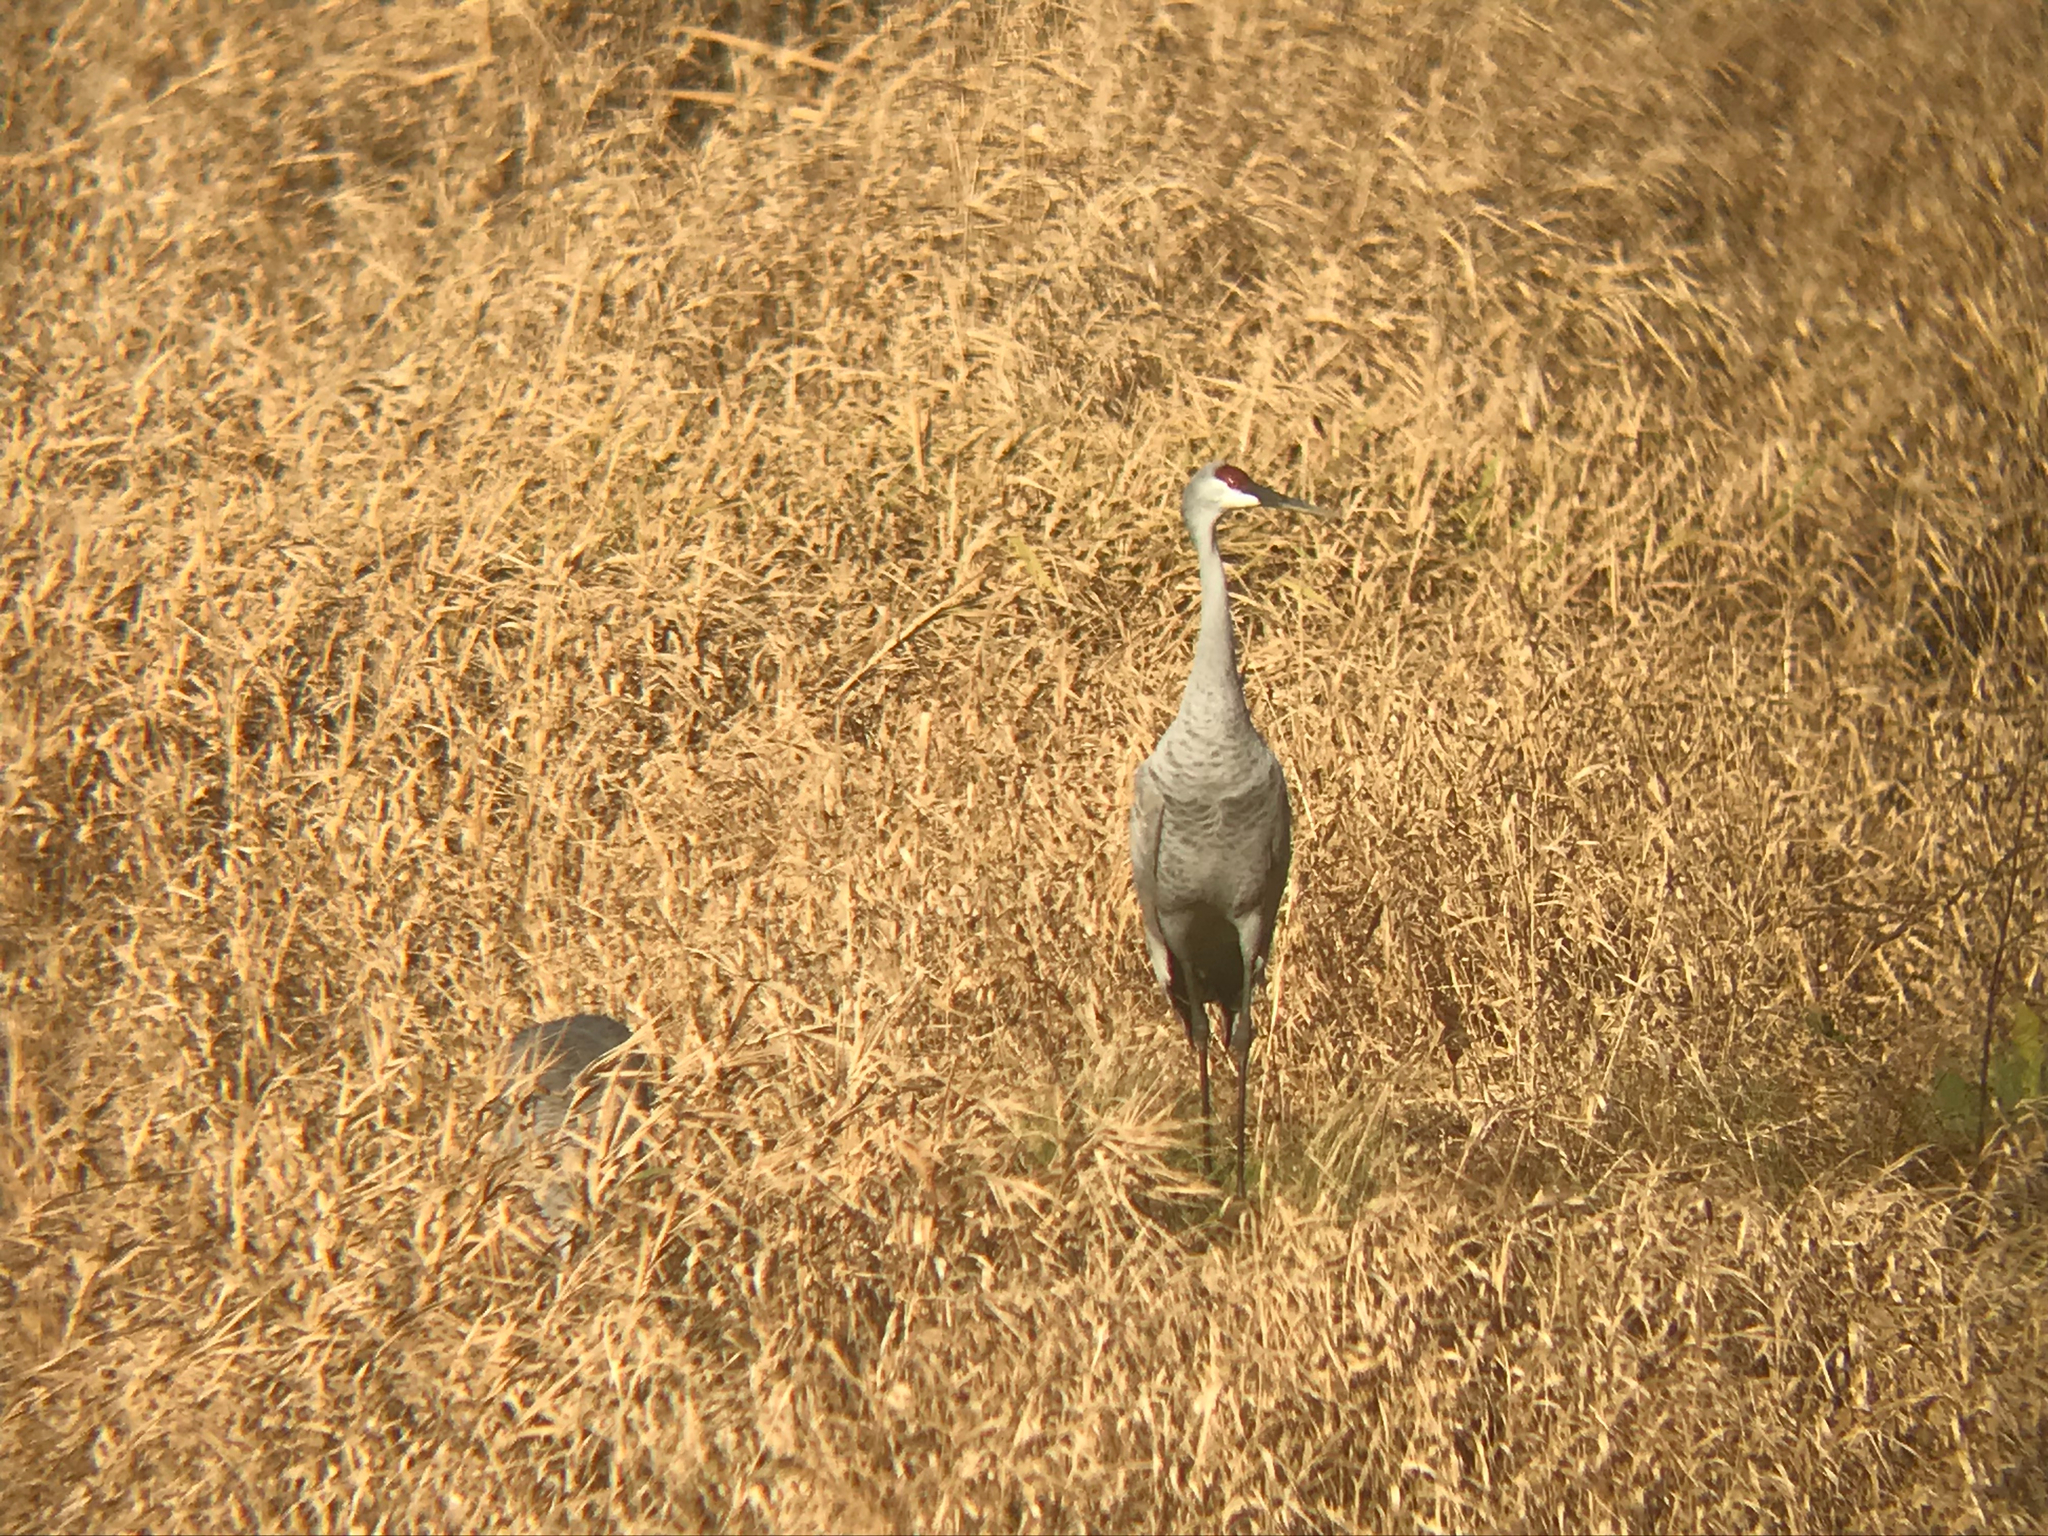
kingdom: Animalia
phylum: Chordata
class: Aves
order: Gruiformes
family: Gruidae
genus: Grus
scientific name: Grus canadensis
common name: Sandhill crane
